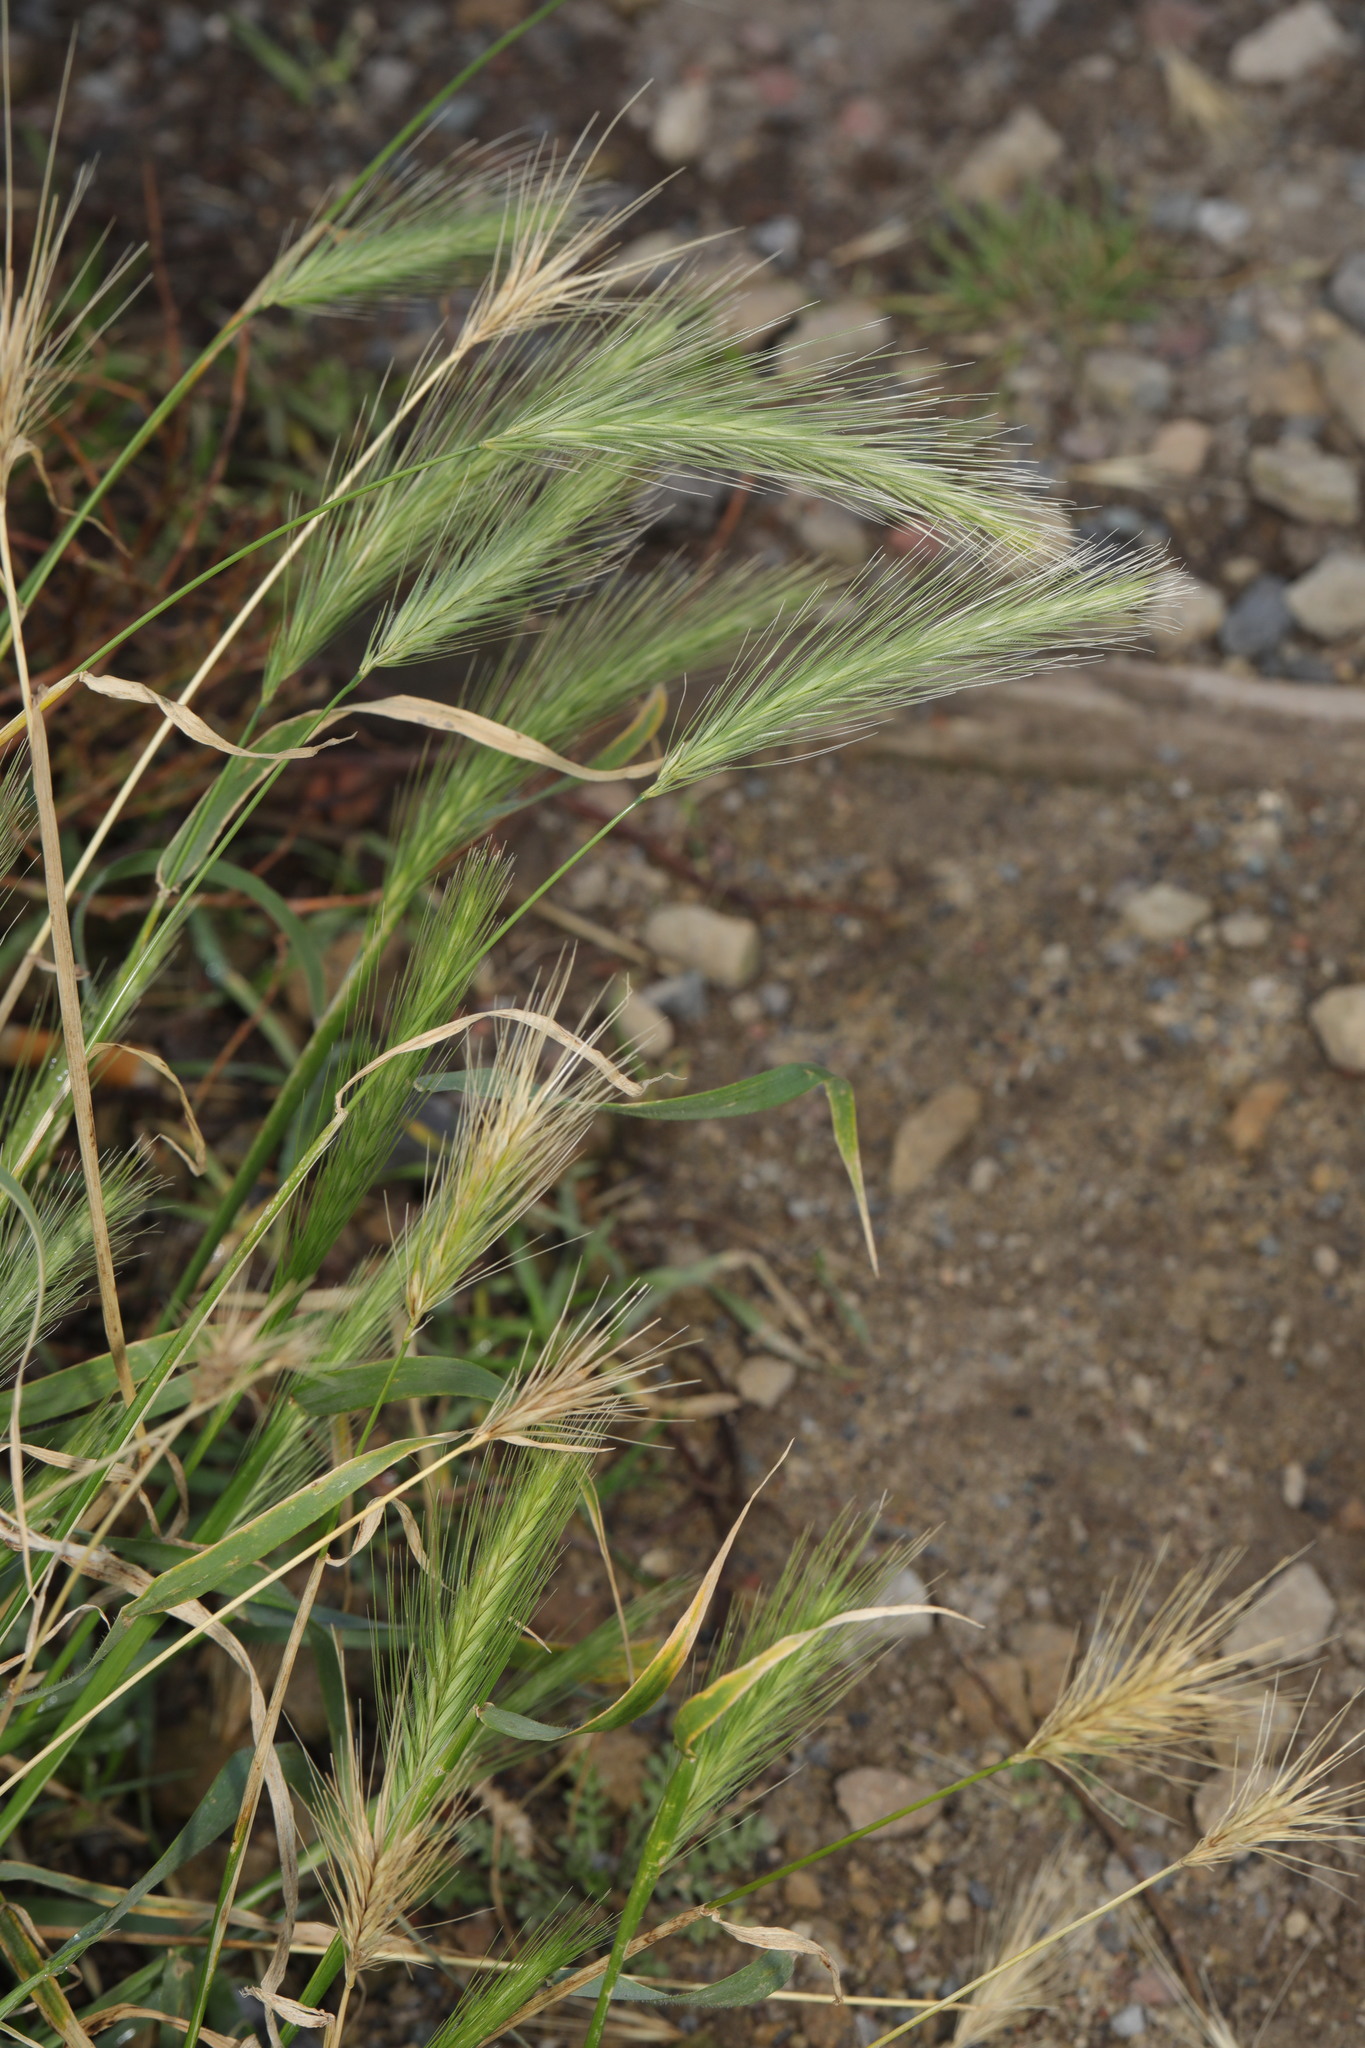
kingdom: Plantae
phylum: Tracheophyta
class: Liliopsida
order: Poales
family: Poaceae
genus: Hordeum
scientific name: Hordeum murinum
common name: Wall barley
